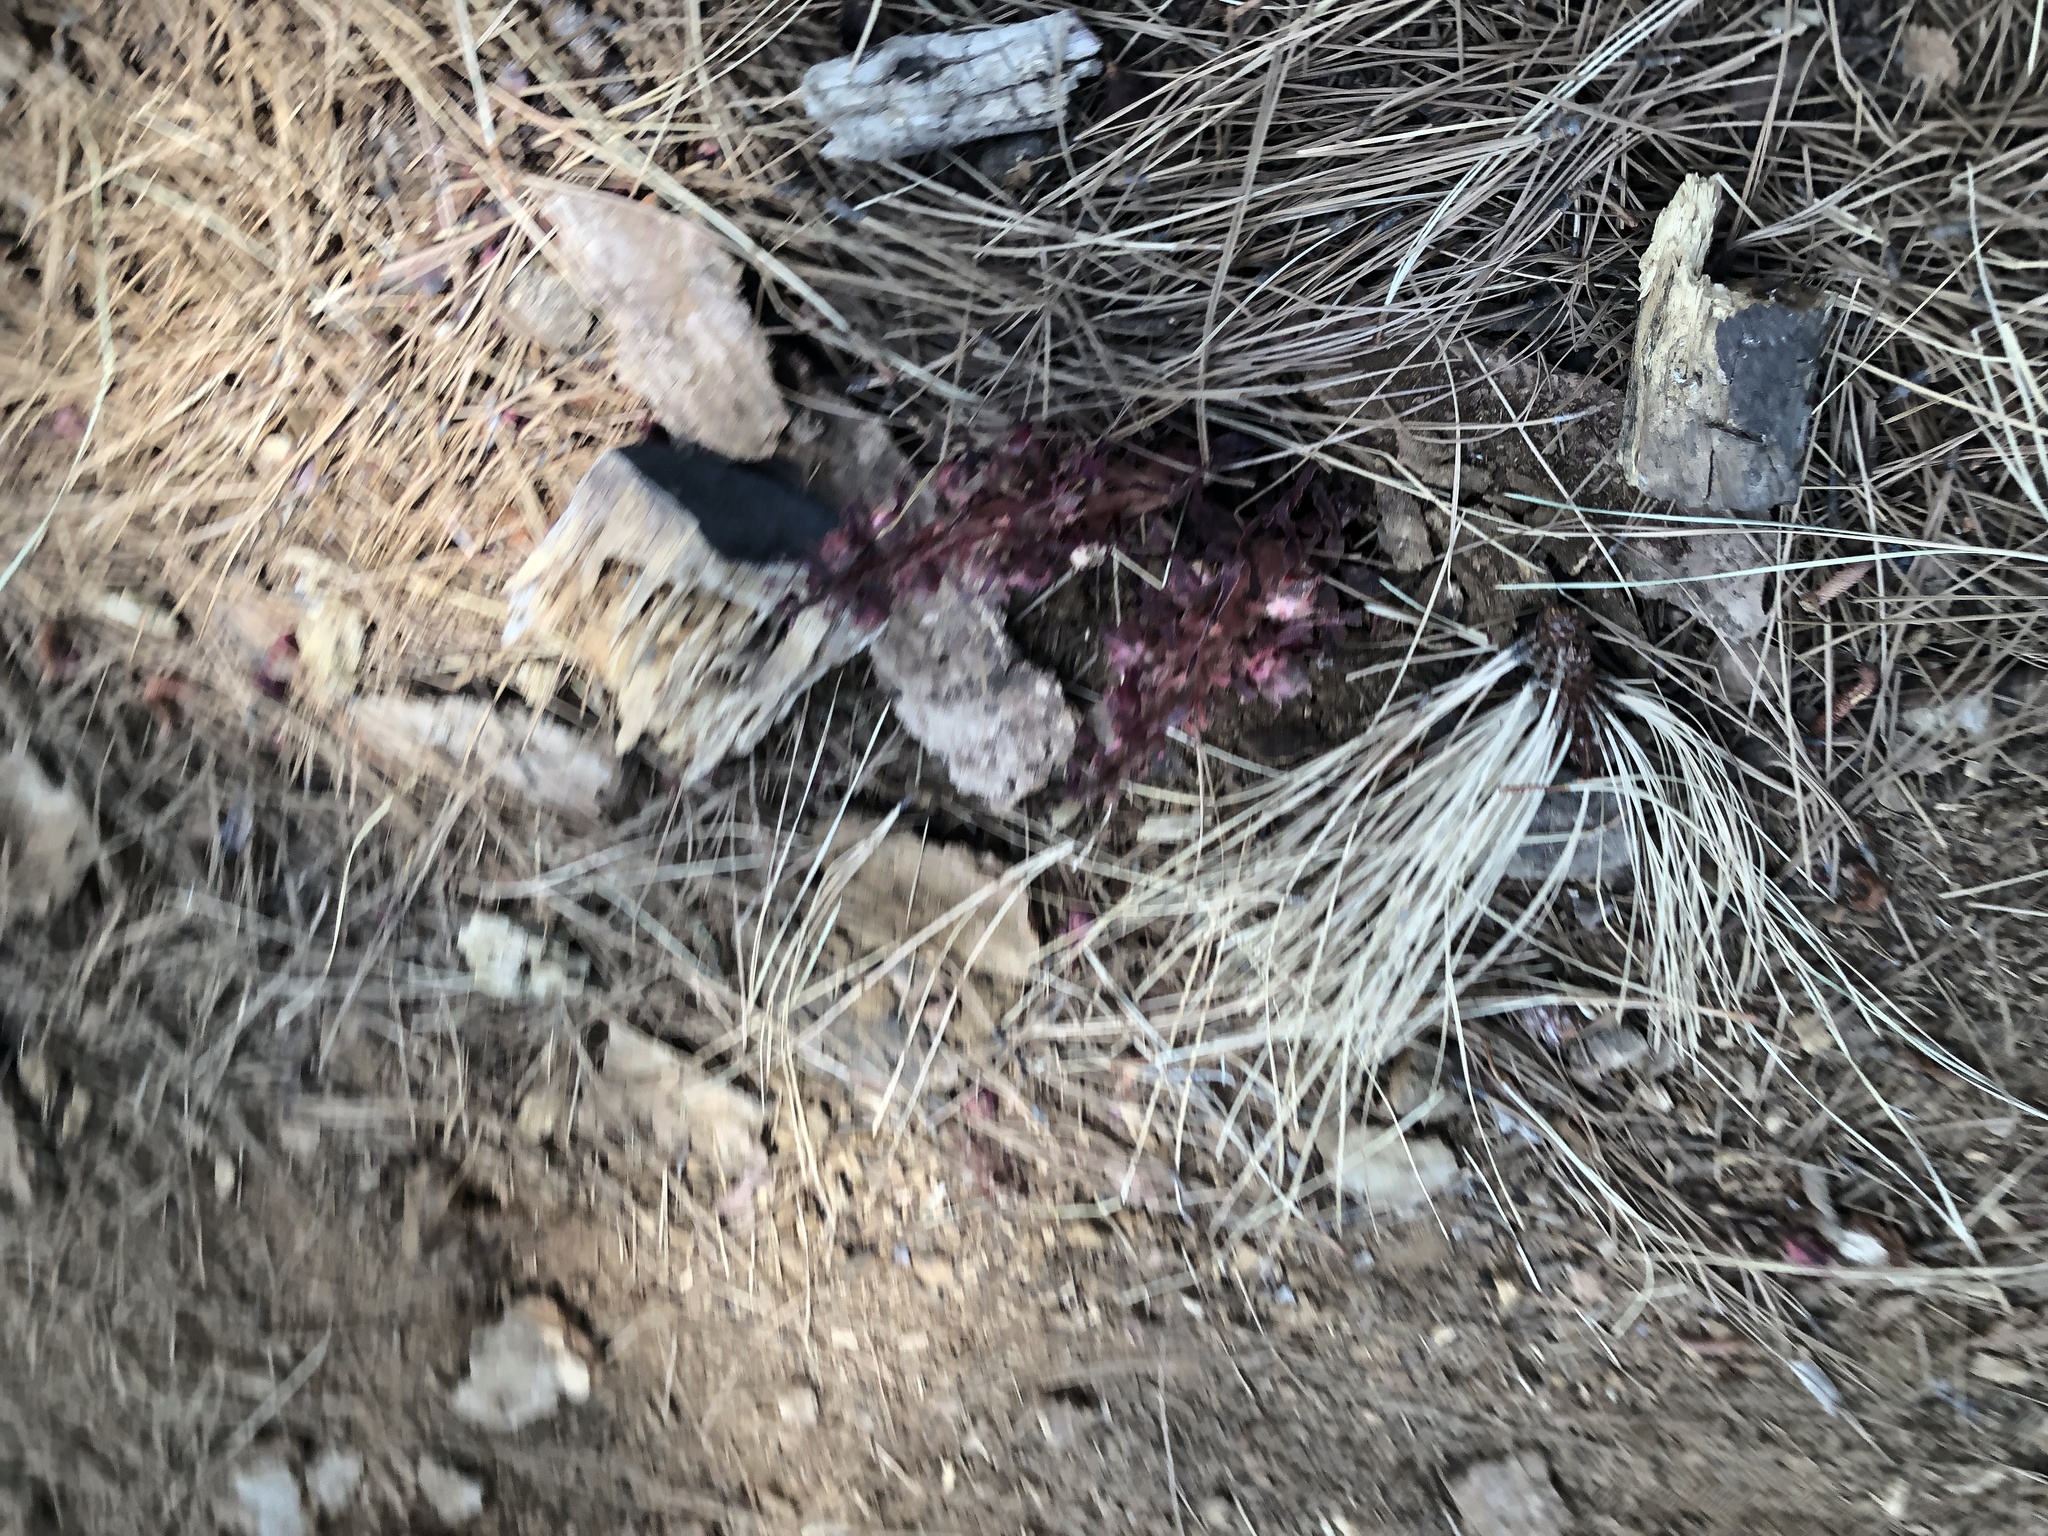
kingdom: Plantae
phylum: Tracheophyta
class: Magnoliopsida
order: Ericales
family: Ericaceae
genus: Sarcodes
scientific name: Sarcodes sanguinea
